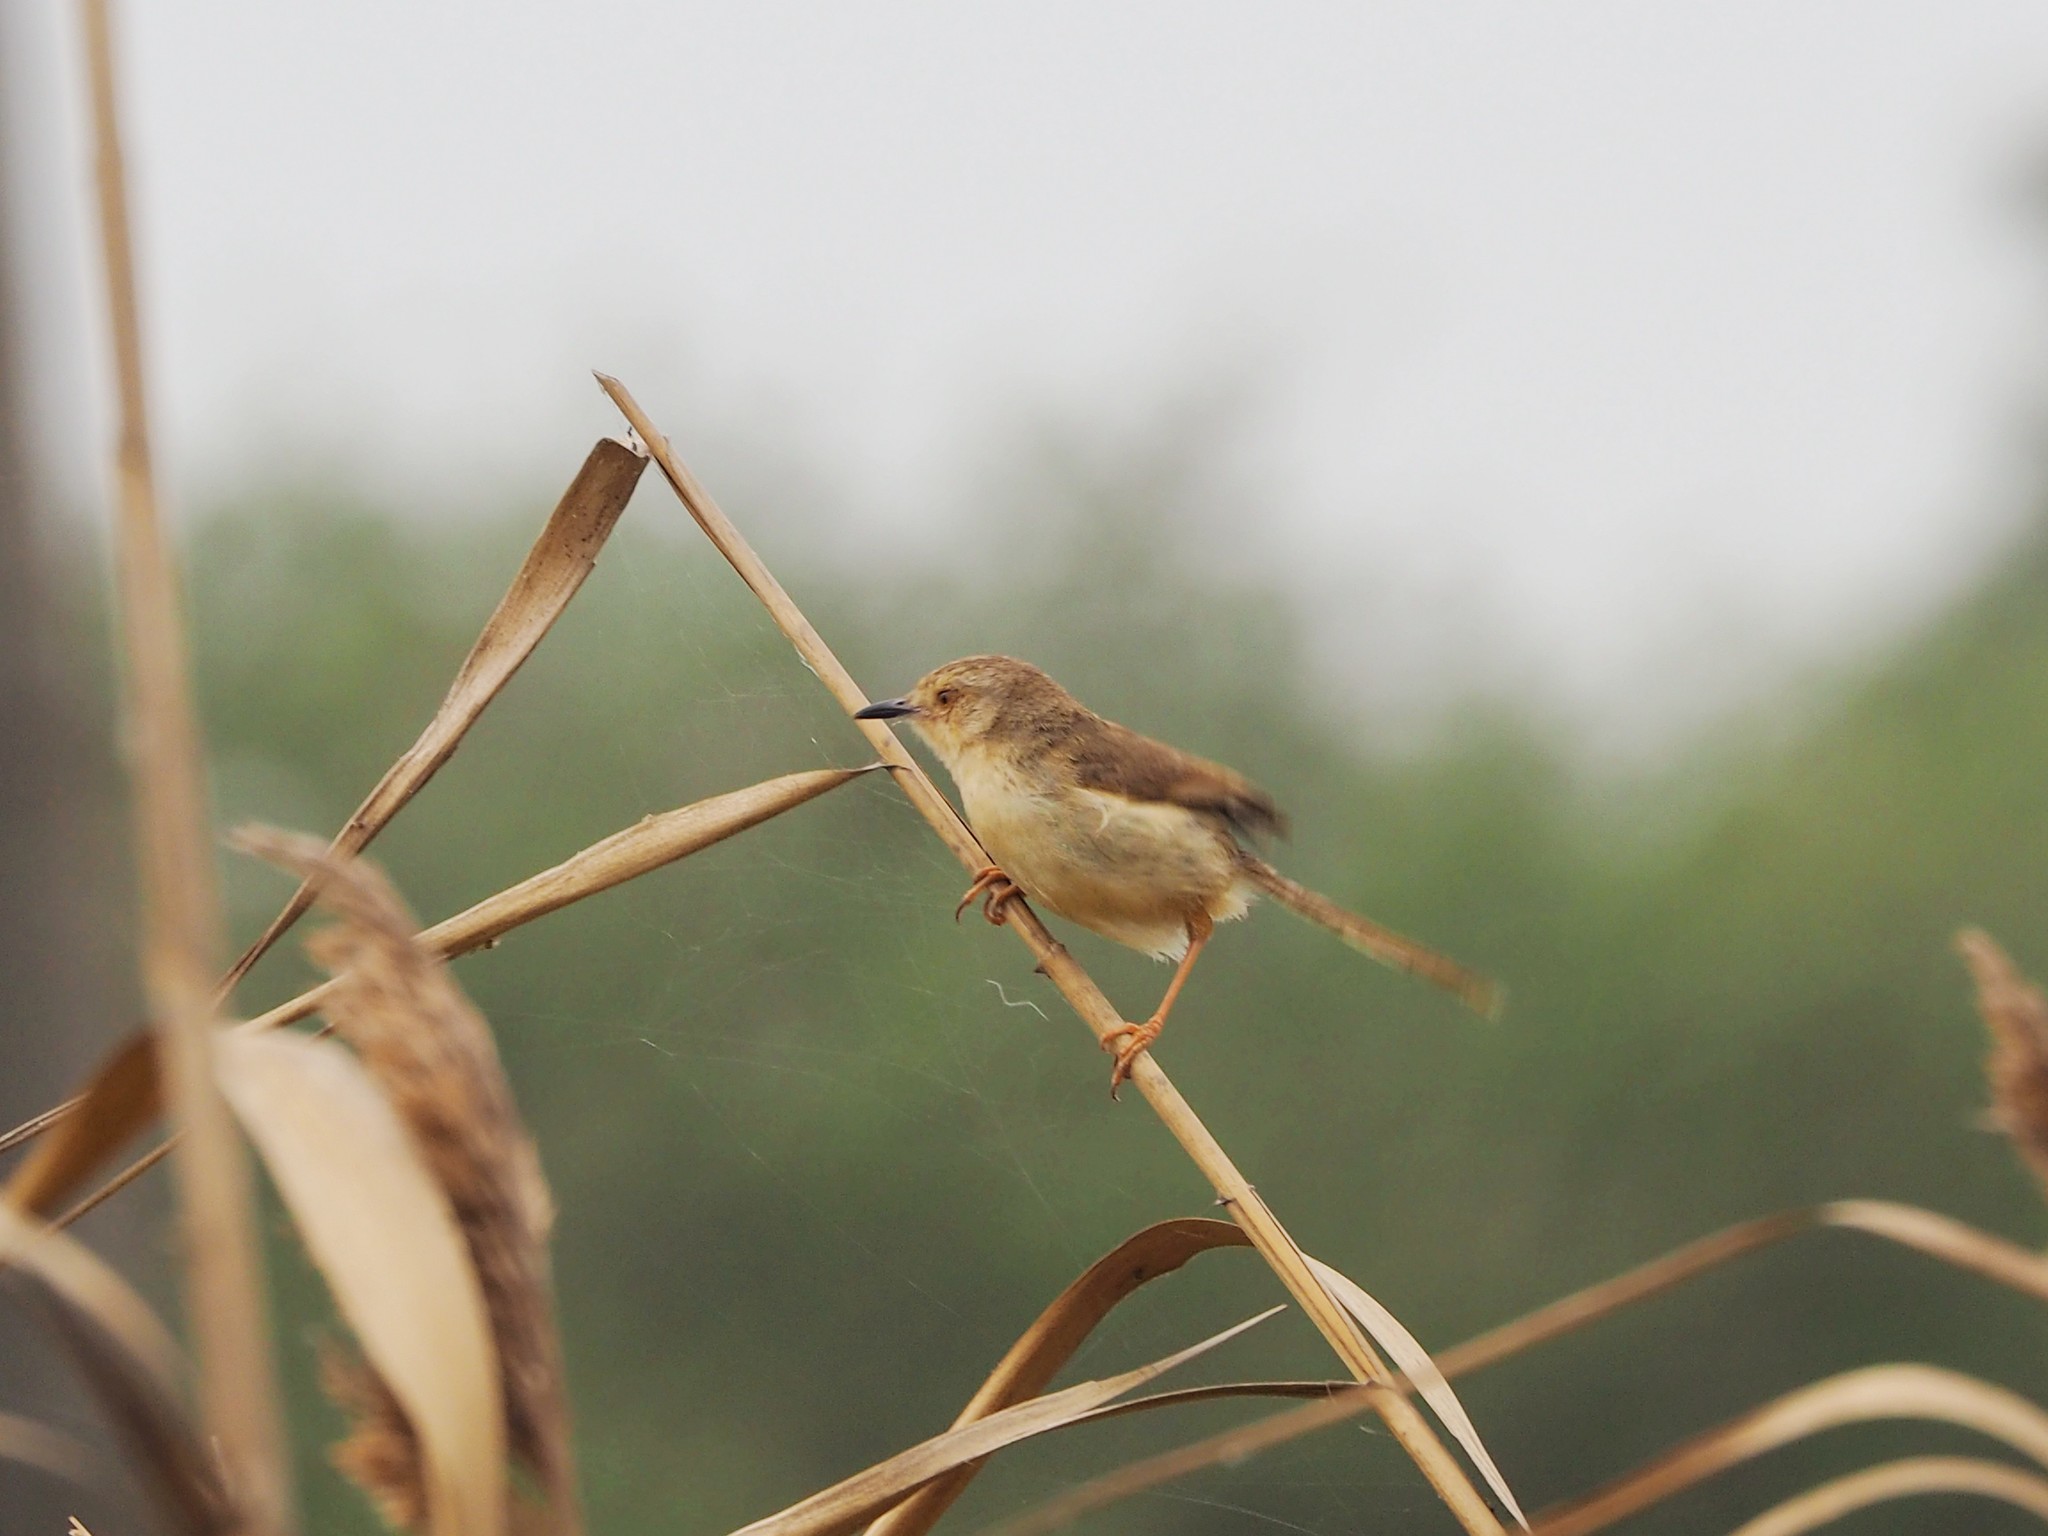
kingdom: Animalia
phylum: Chordata
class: Aves
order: Passeriformes
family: Cisticolidae
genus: Prinia
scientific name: Prinia inornata
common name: Plain prinia
